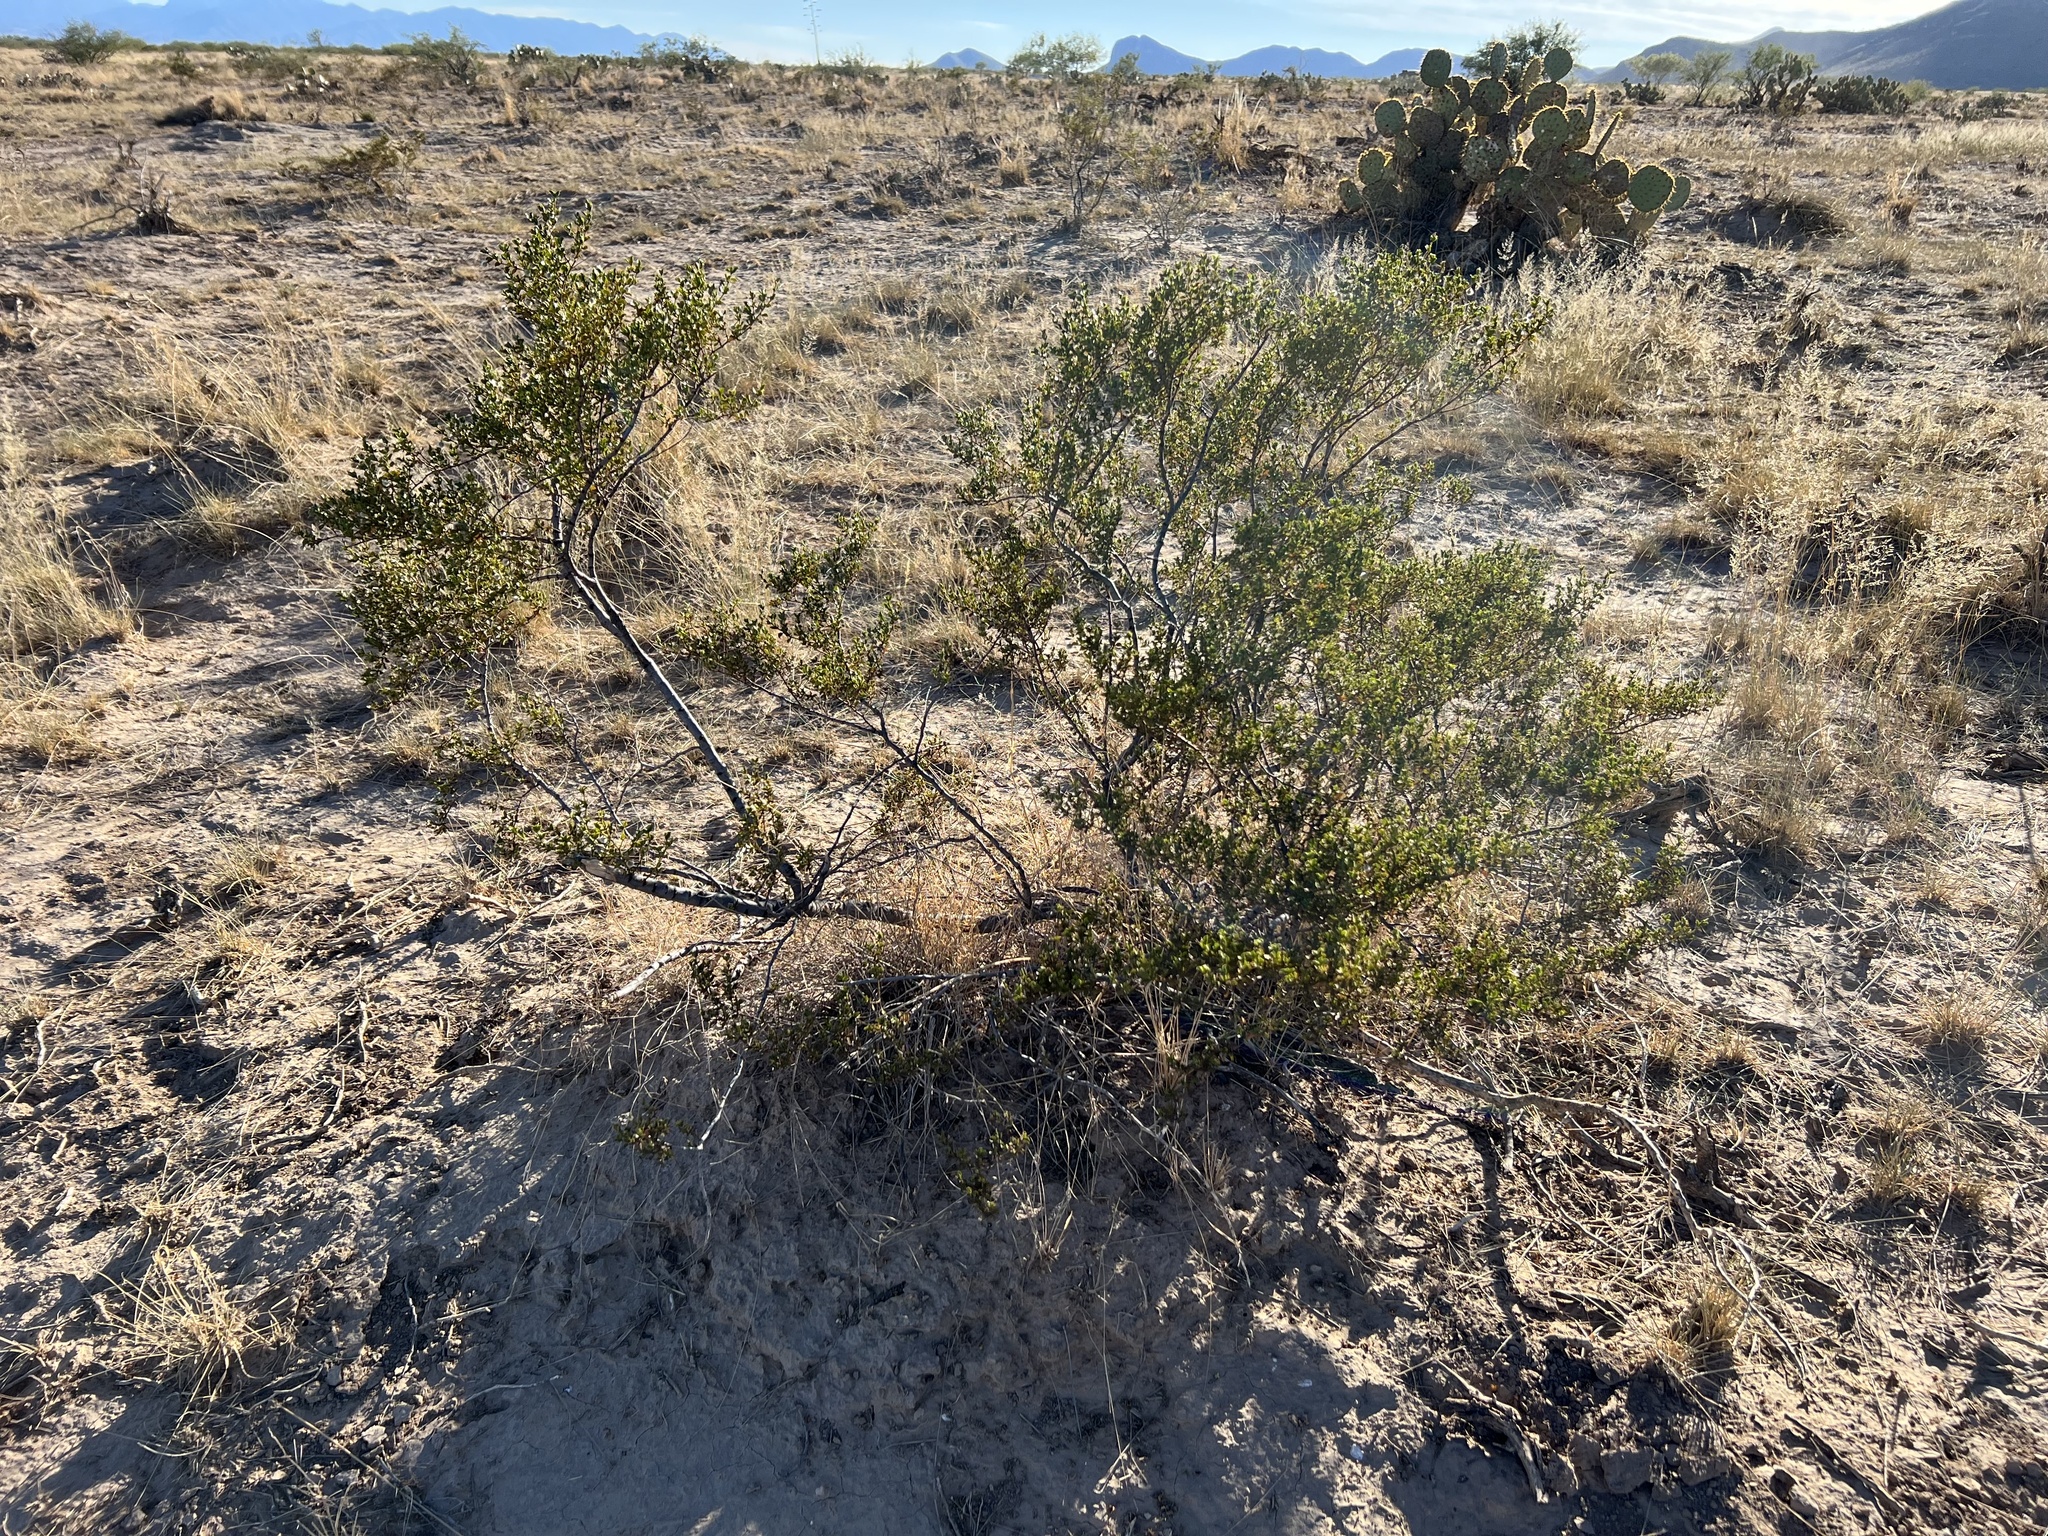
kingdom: Plantae
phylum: Tracheophyta
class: Magnoliopsida
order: Zygophyllales
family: Zygophyllaceae
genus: Larrea
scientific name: Larrea tridentata
